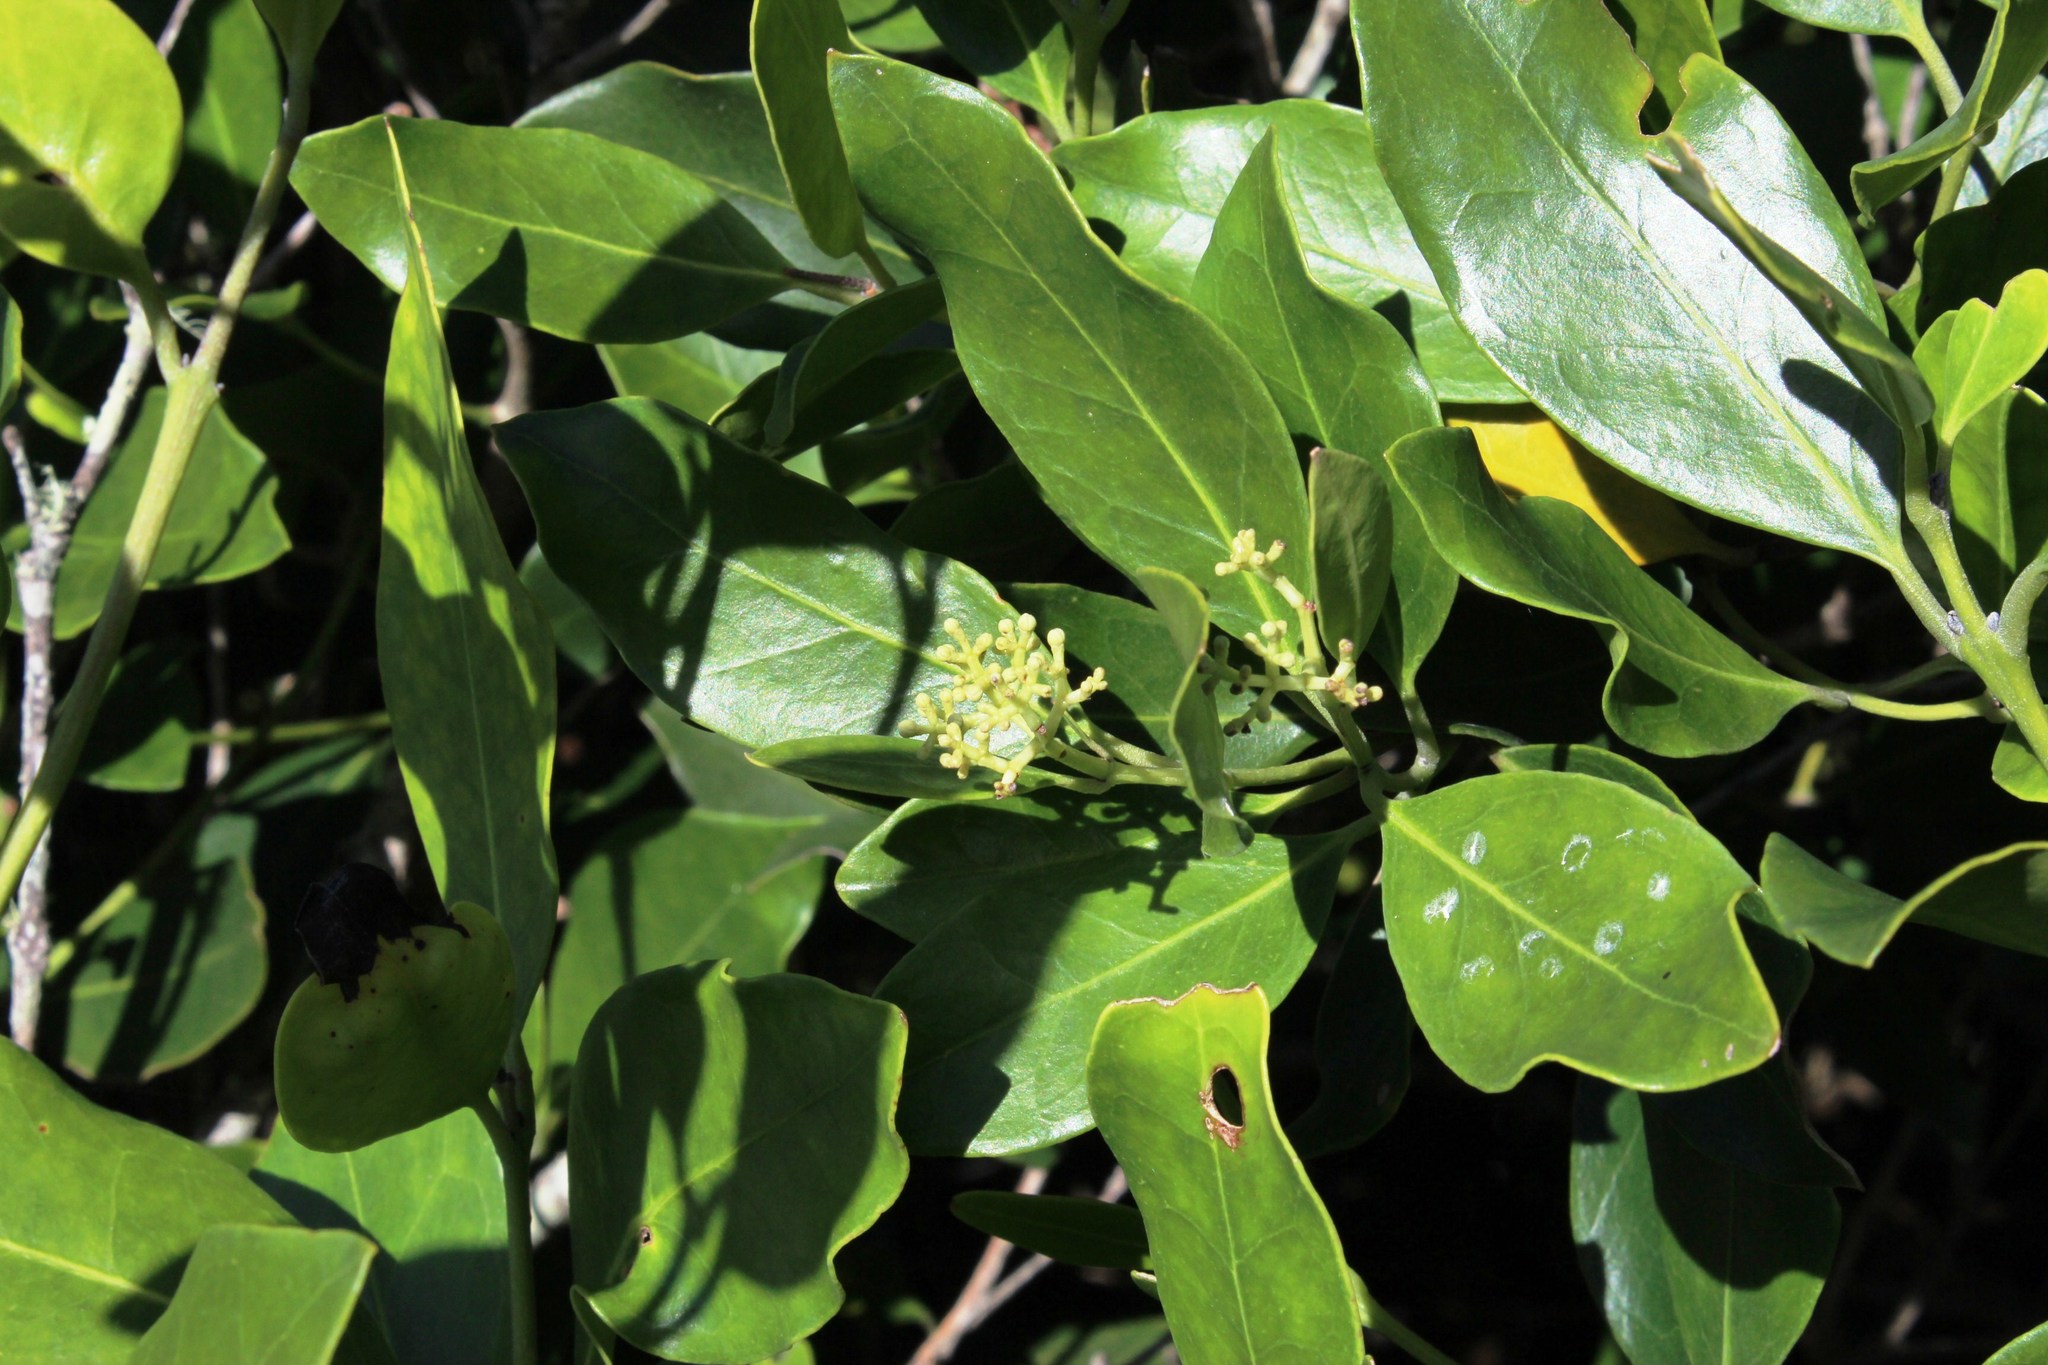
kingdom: Plantae
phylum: Tracheophyta
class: Magnoliopsida
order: Lamiales
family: Oleaceae
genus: Olea
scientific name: Olea capensis
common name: Black ironwood
